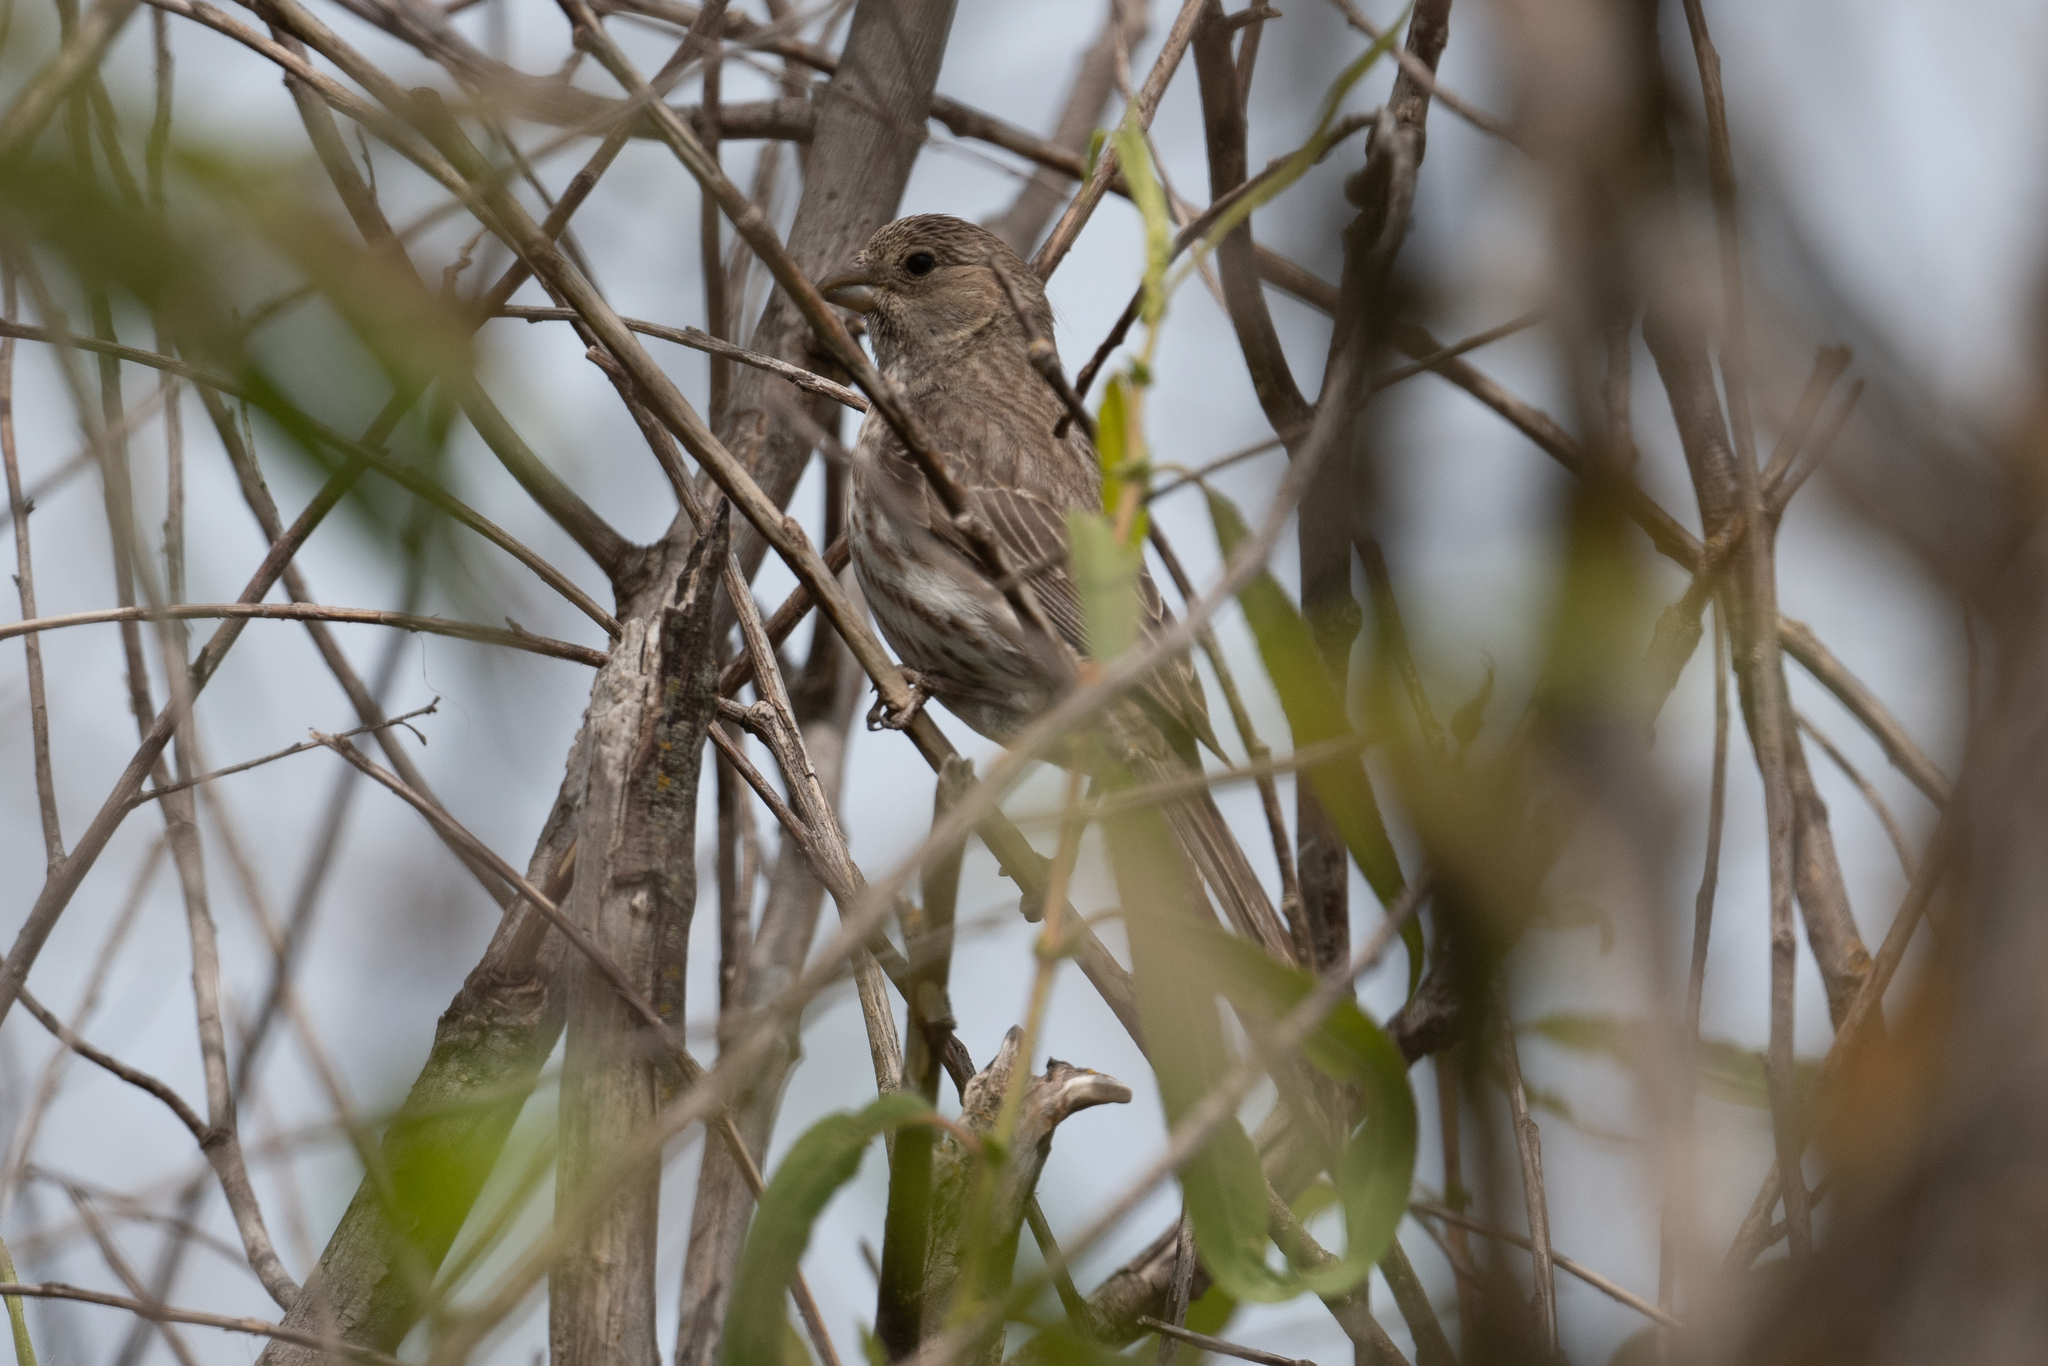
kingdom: Animalia
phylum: Chordata
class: Aves
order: Passeriformes
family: Fringillidae
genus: Haemorhous
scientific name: Haemorhous mexicanus
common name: House finch
